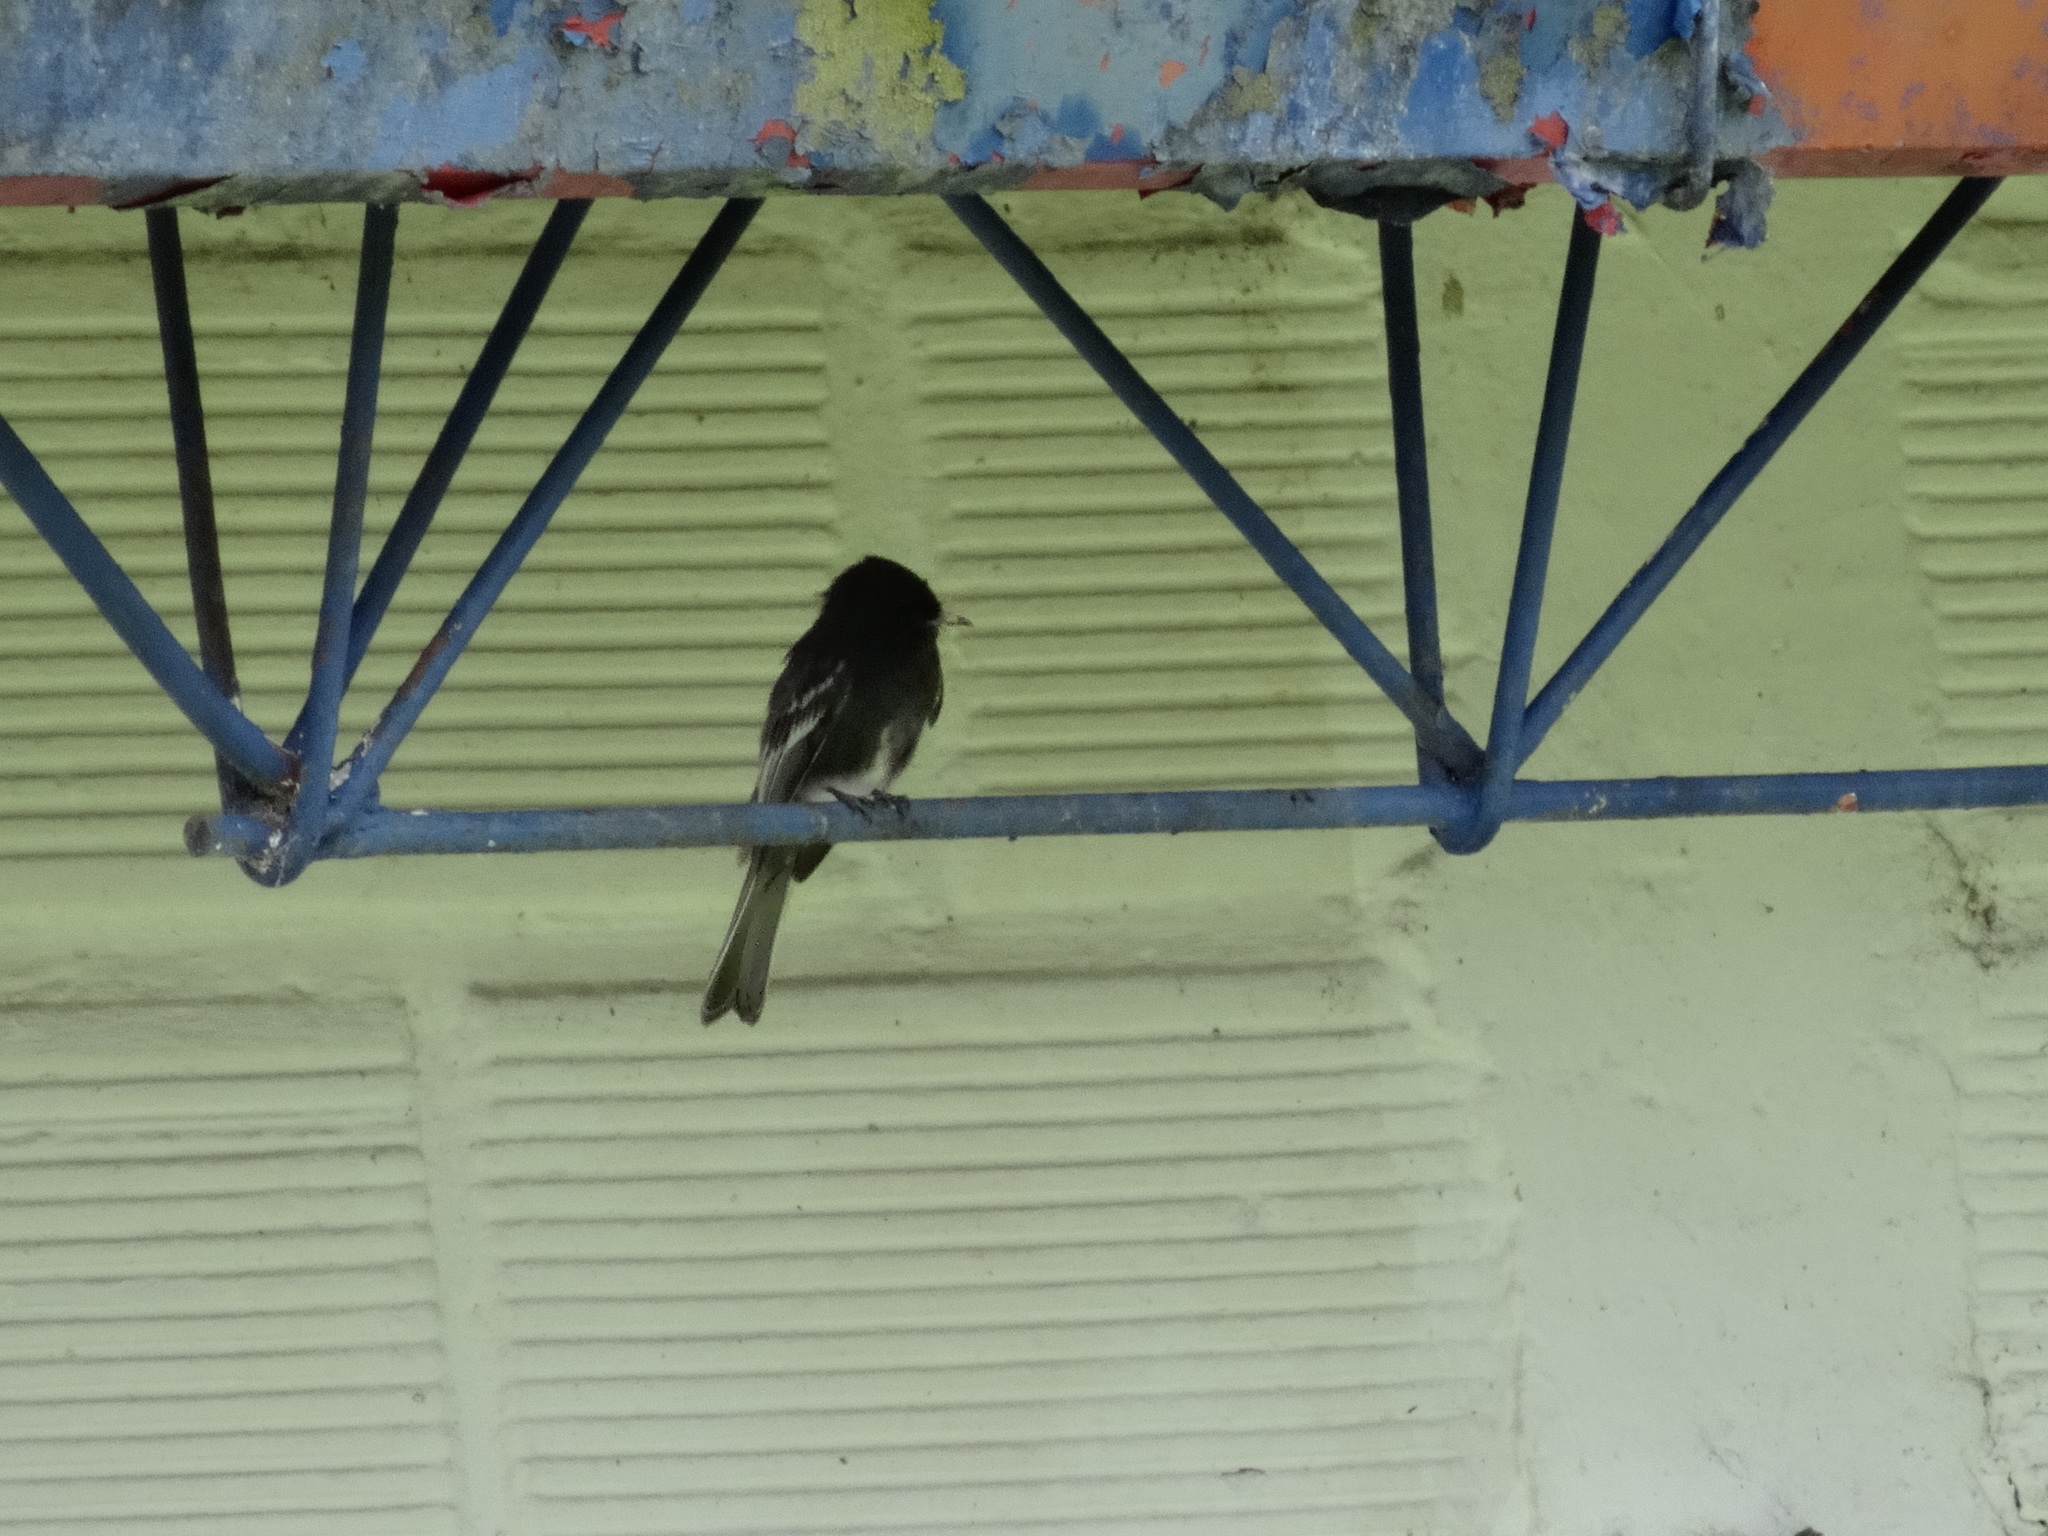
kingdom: Animalia
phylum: Chordata
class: Aves
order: Passeriformes
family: Tyrannidae
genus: Sayornis
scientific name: Sayornis nigricans
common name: Black phoebe
